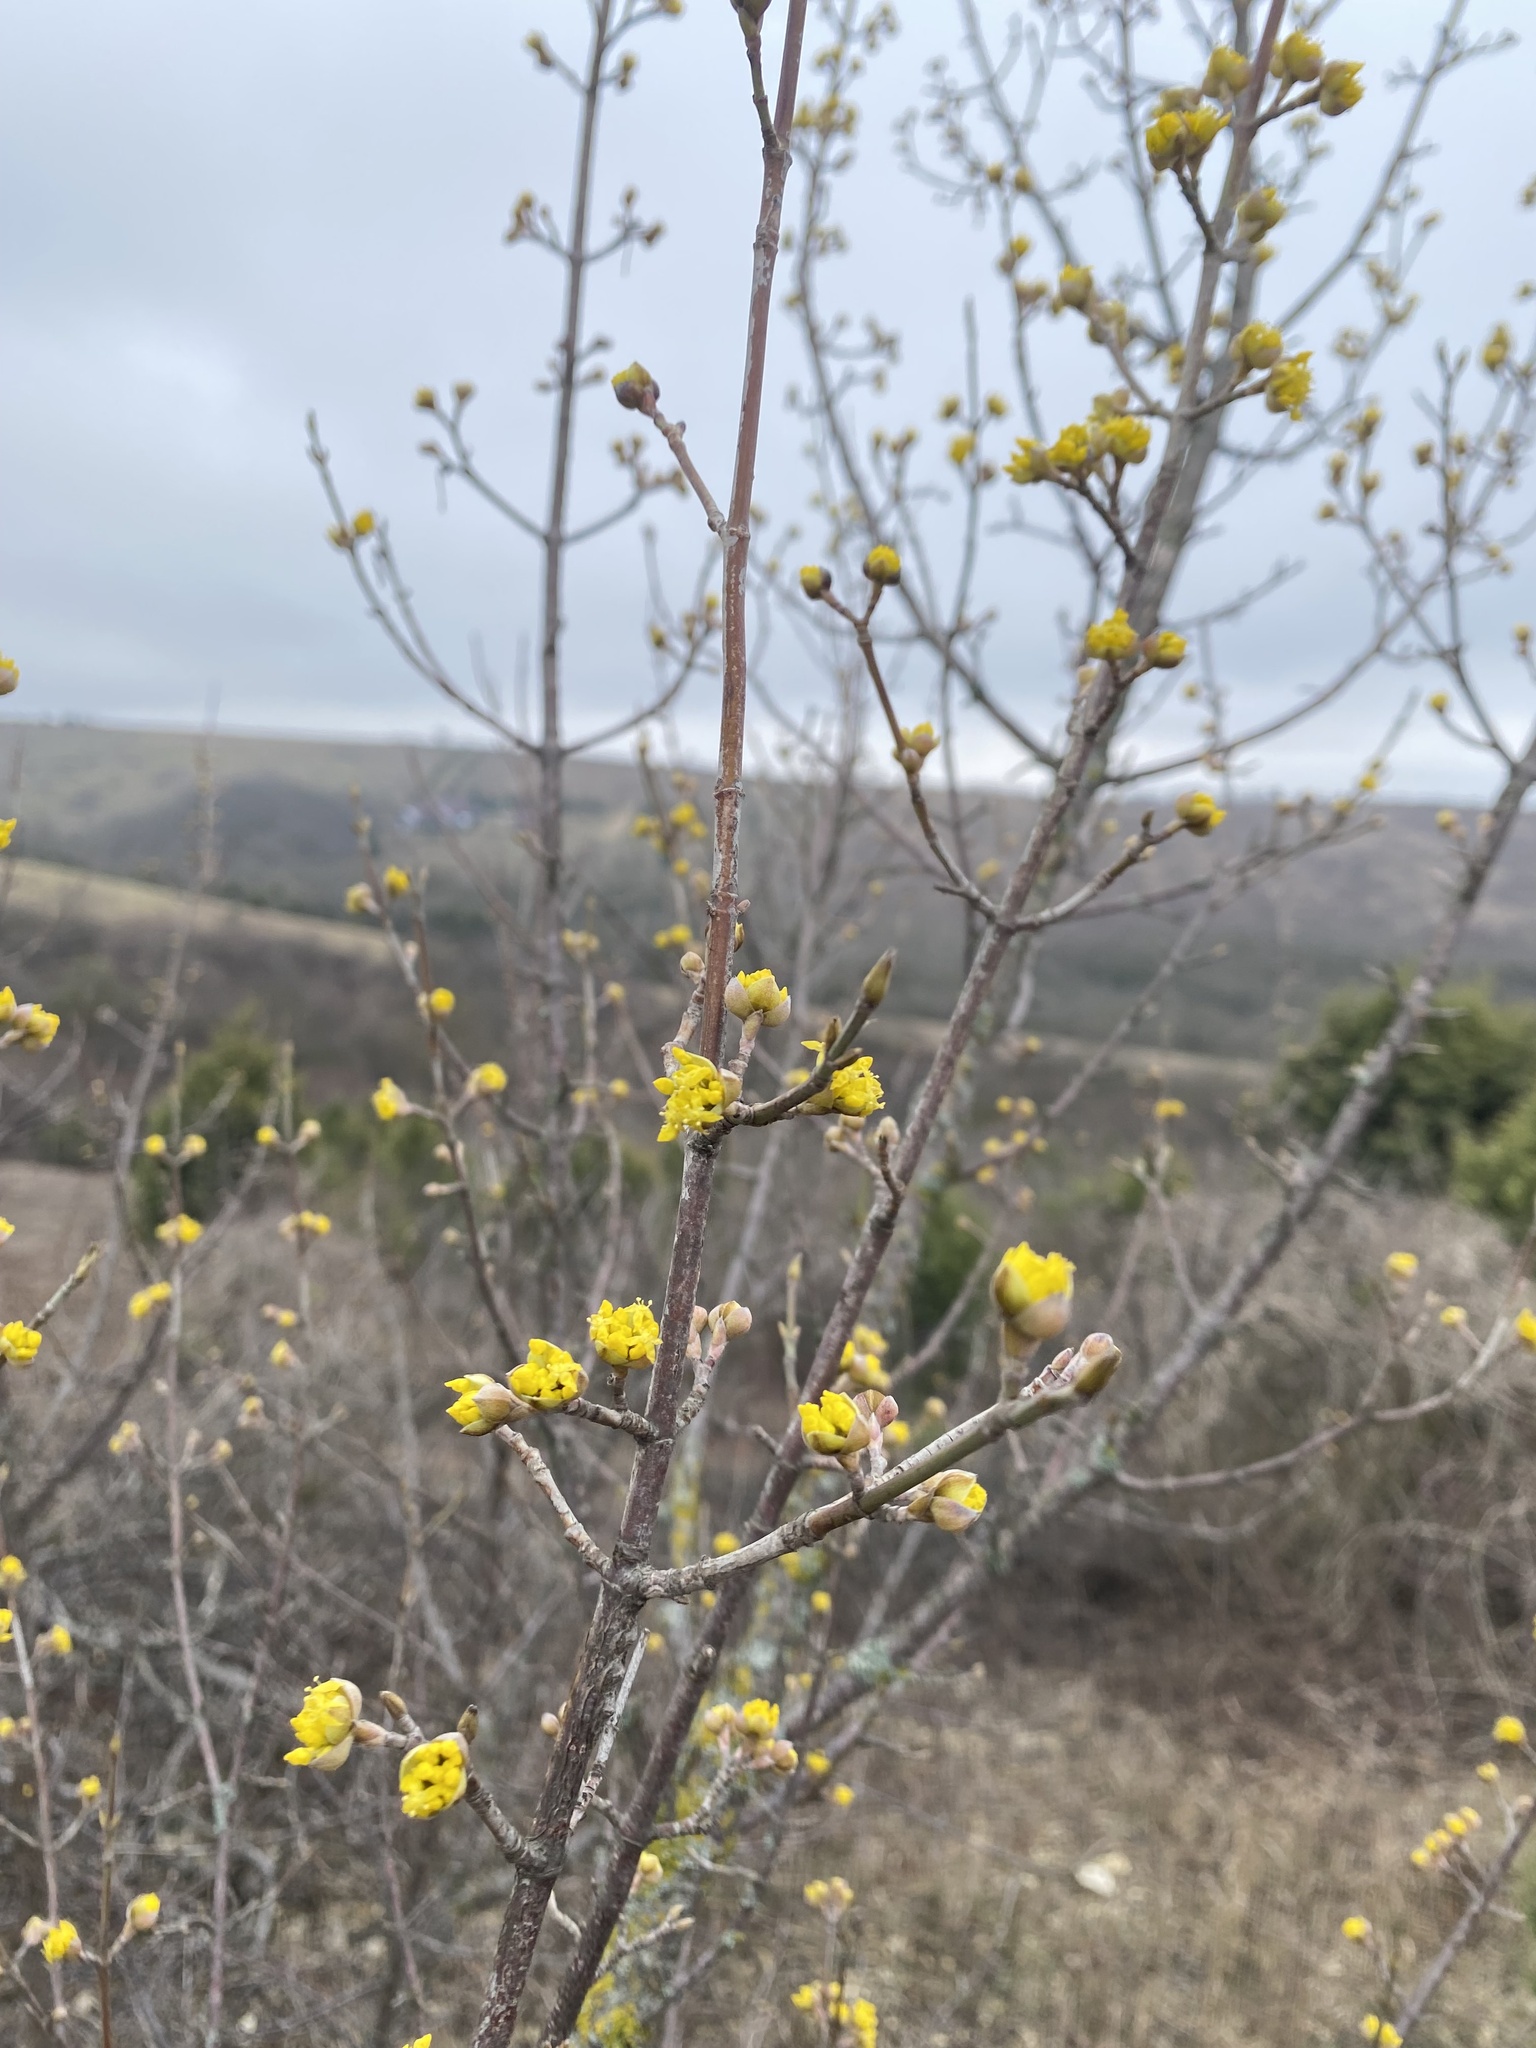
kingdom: Plantae
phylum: Tracheophyta
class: Magnoliopsida
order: Cornales
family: Cornaceae
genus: Cornus
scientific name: Cornus mas
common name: Cornelian-cherry
